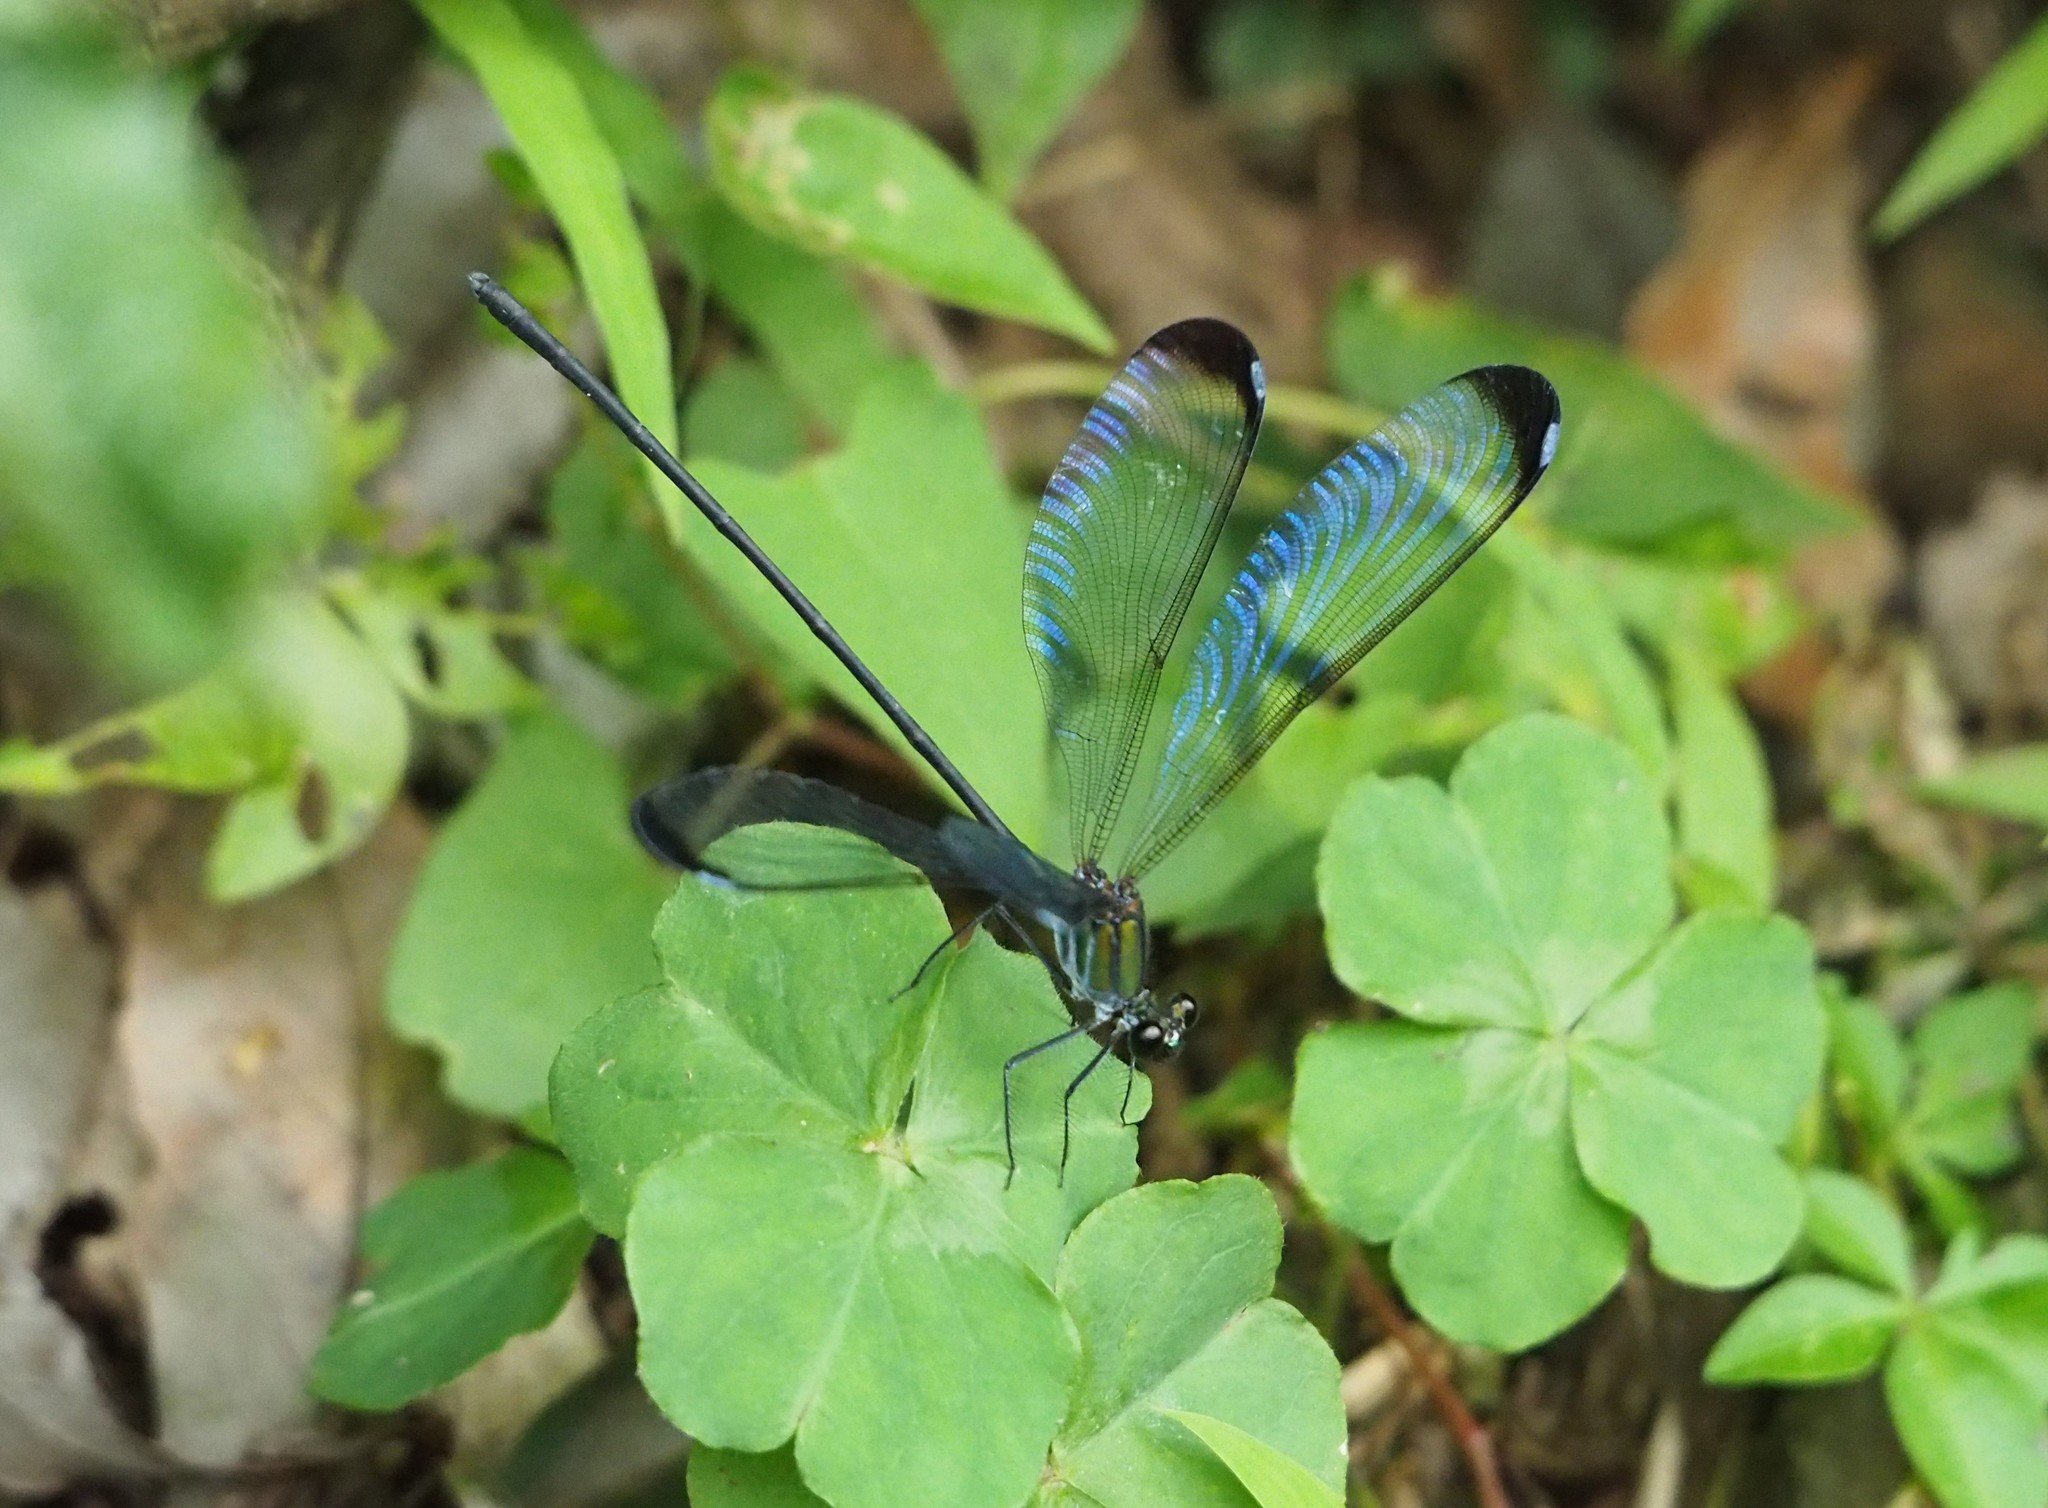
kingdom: Animalia
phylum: Arthropoda
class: Insecta
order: Odonata
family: Calopterygidae
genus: Psolodesmus
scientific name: Psolodesmus mandarinus
